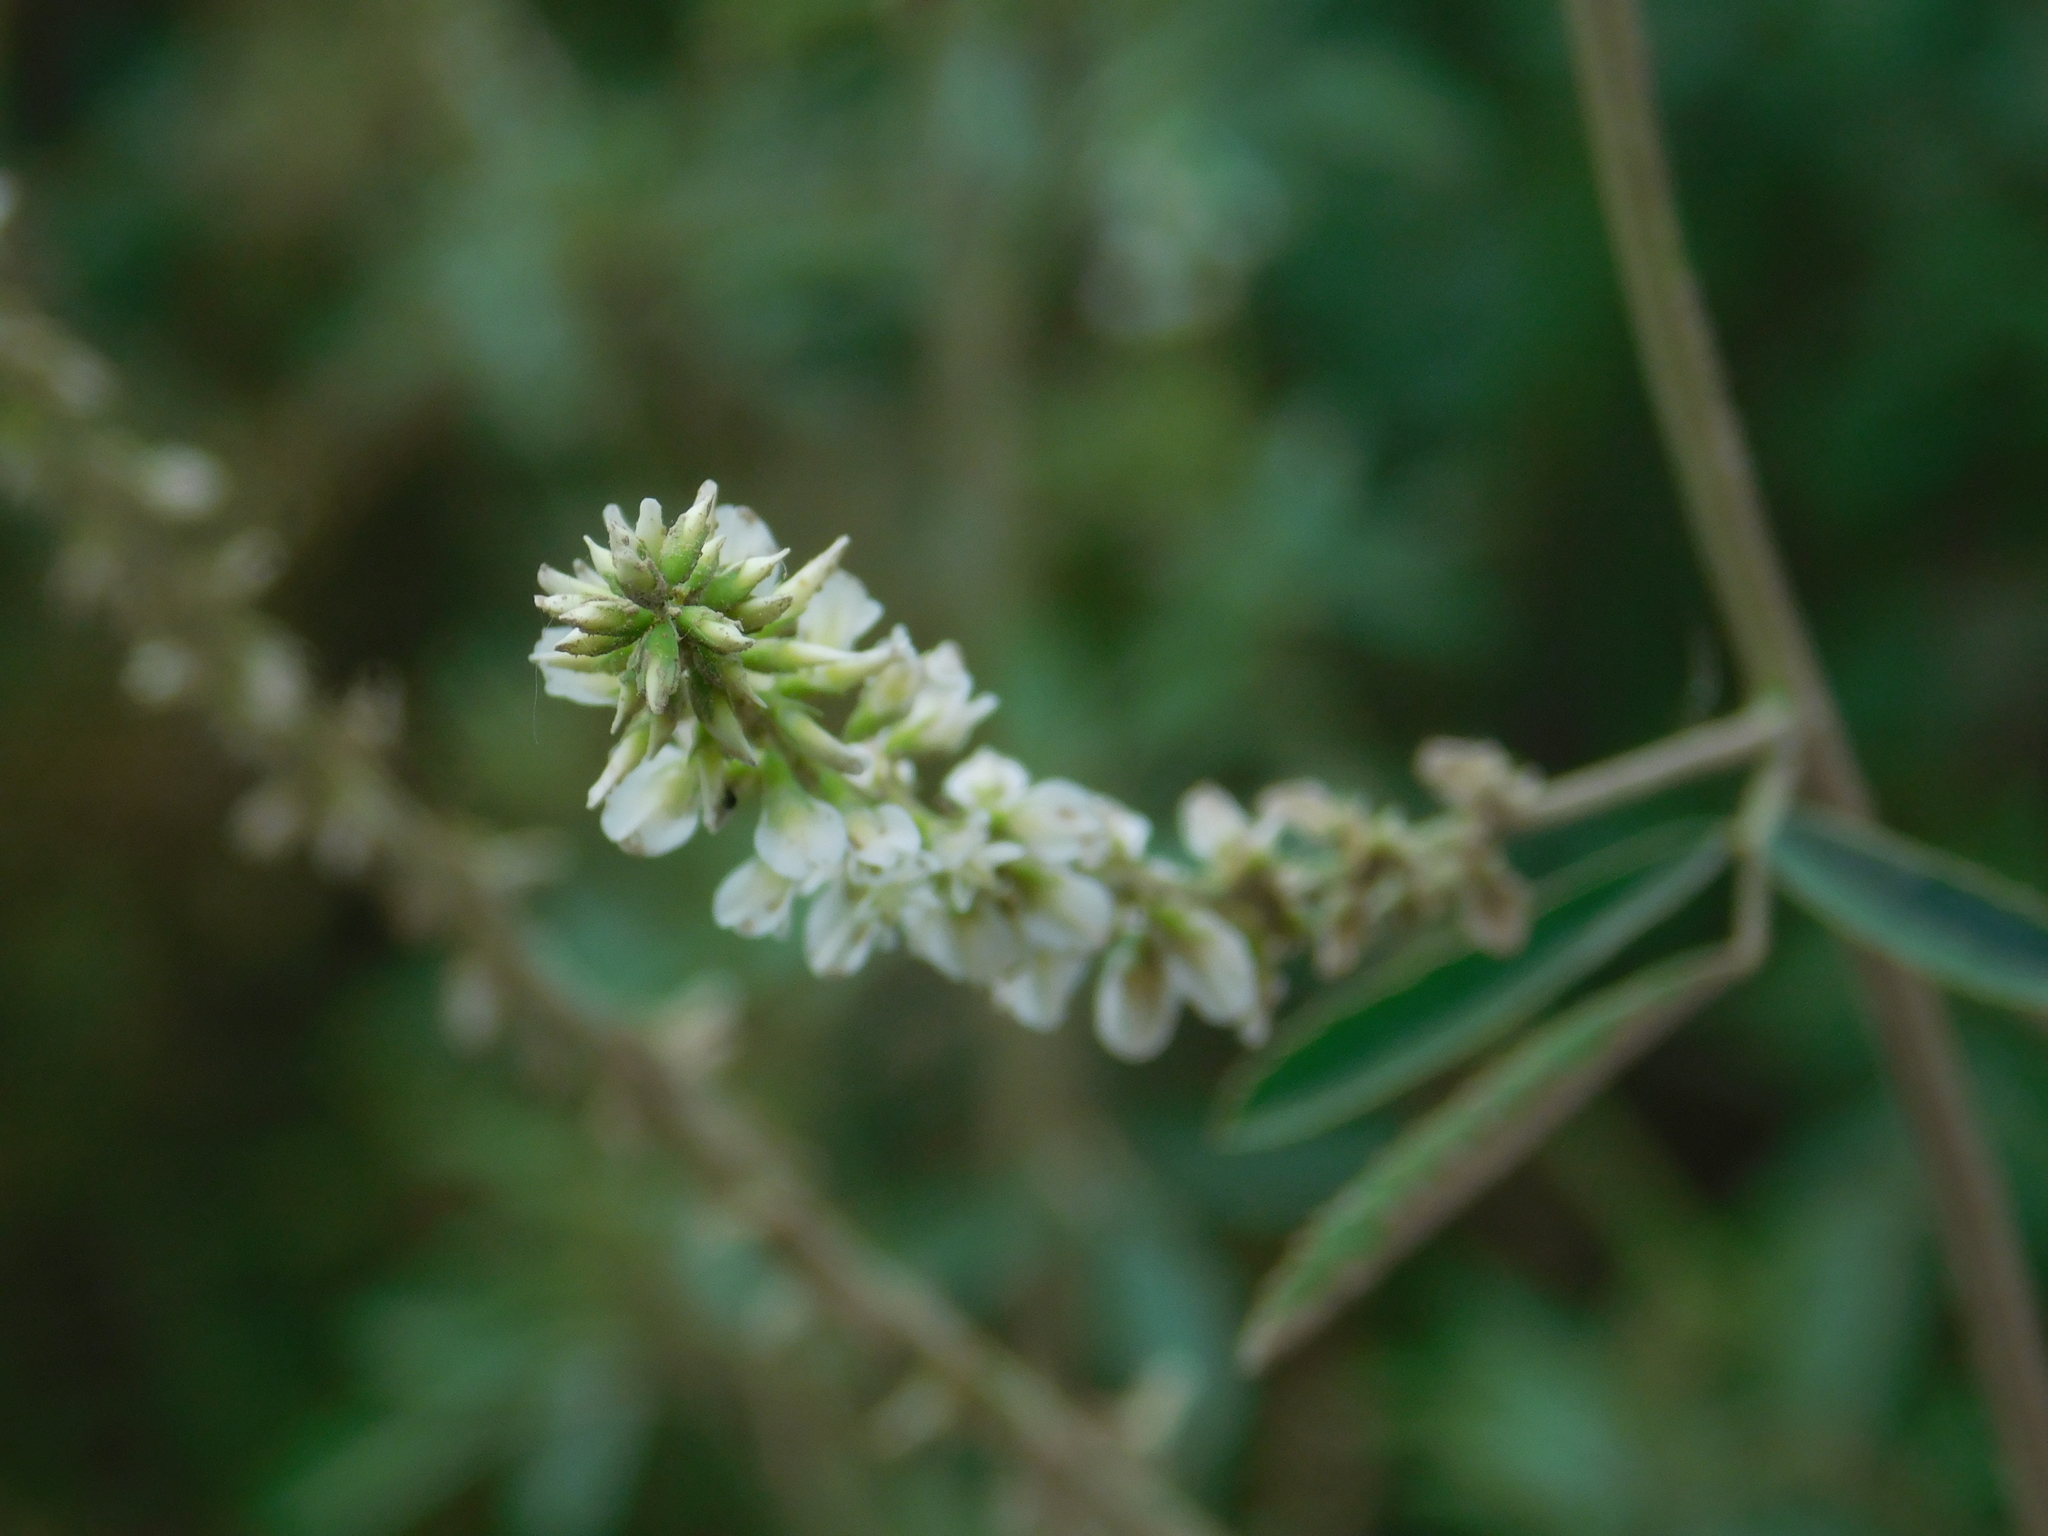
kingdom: Plantae
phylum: Tracheophyta
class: Magnoliopsida
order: Fabales
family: Fabaceae
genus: Melilotus
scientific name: Melilotus albus
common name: White melilot
